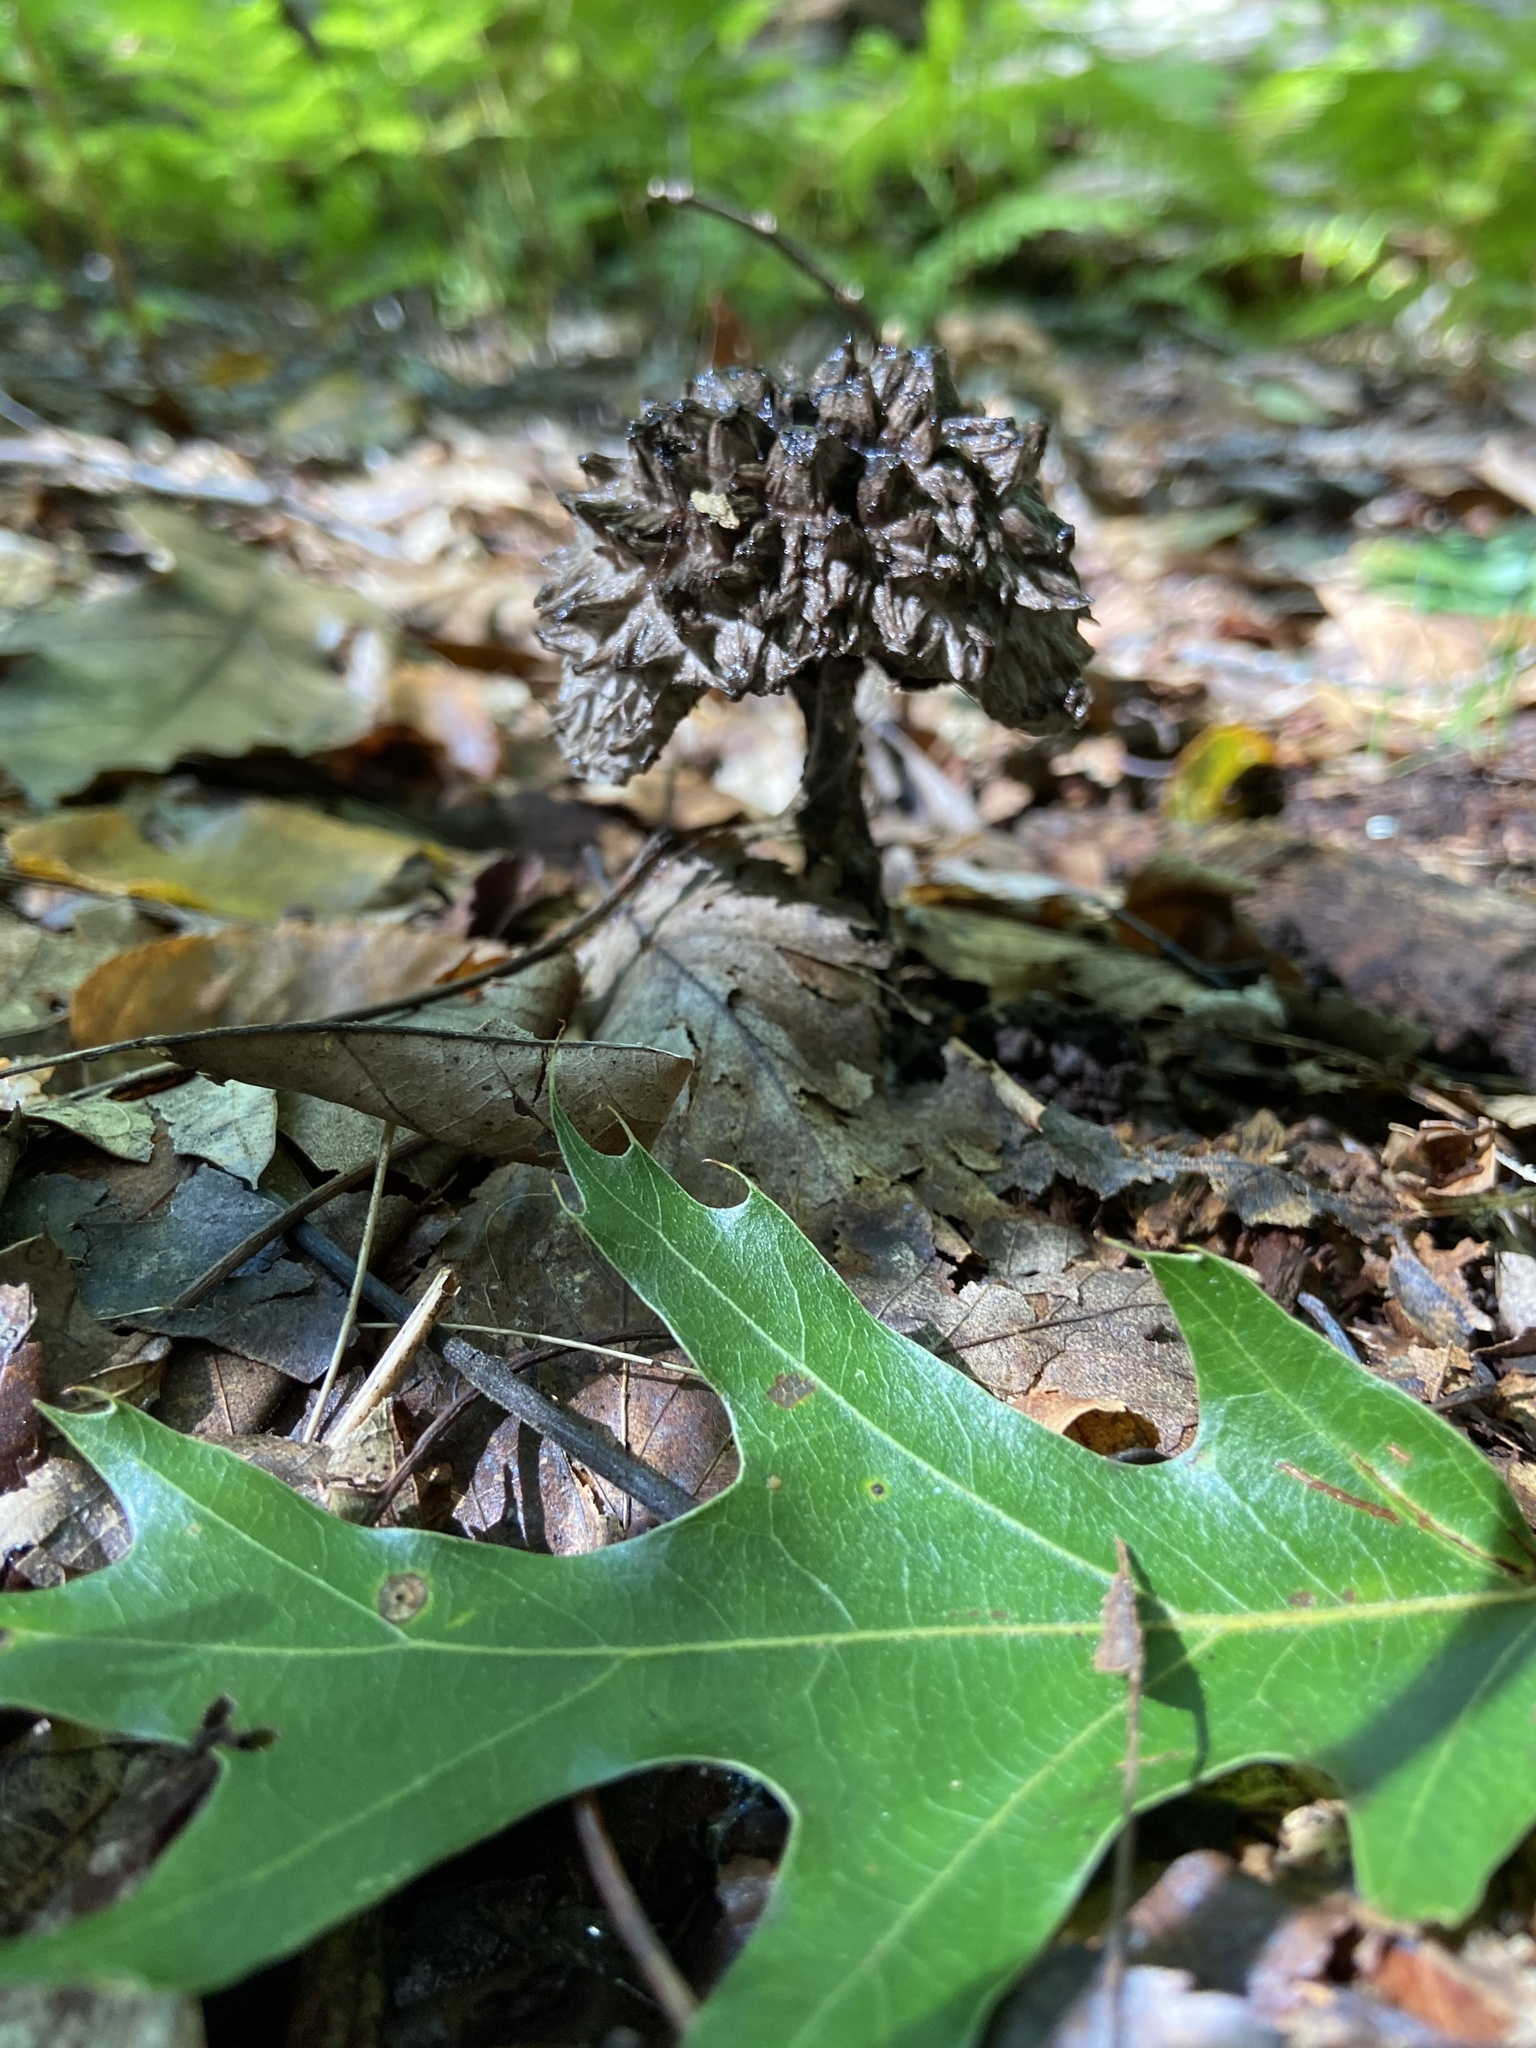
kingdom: Fungi
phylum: Basidiomycota
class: Agaricomycetes
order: Boletales
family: Boletaceae
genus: Strobilomyces
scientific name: Strobilomyces strobilaceus
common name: Old man of the woods
